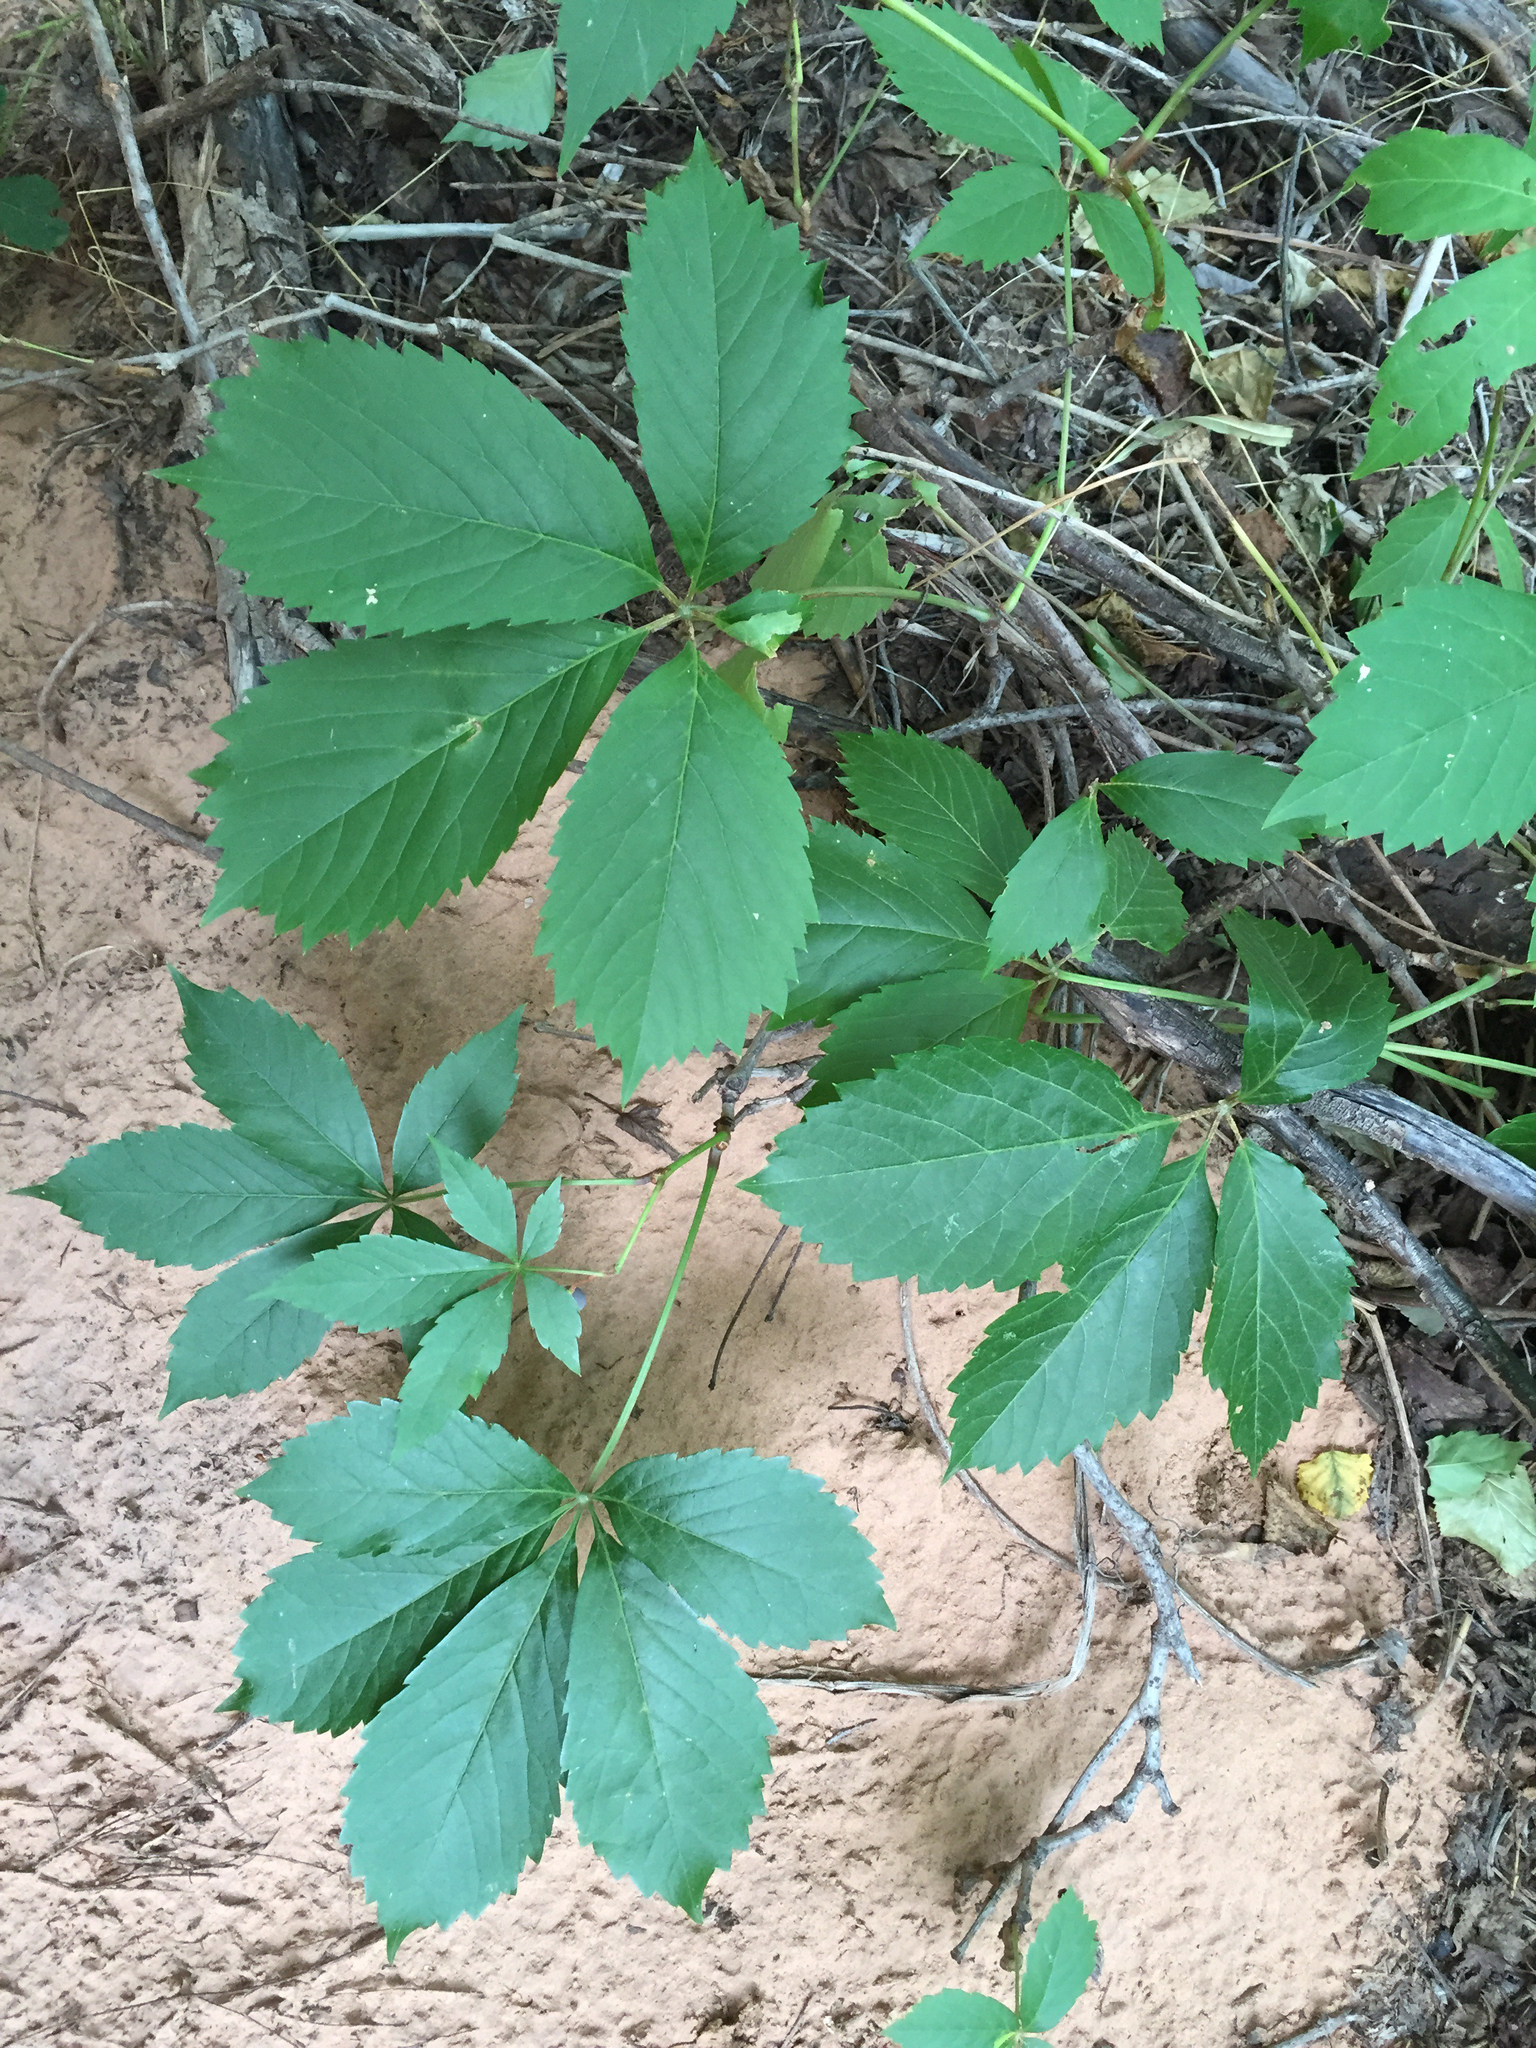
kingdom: Plantae
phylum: Tracheophyta
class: Magnoliopsida
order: Vitales
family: Vitaceae
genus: Parthenocissus
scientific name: Parthenocissus quinquefolia
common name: Virginia-creeper
